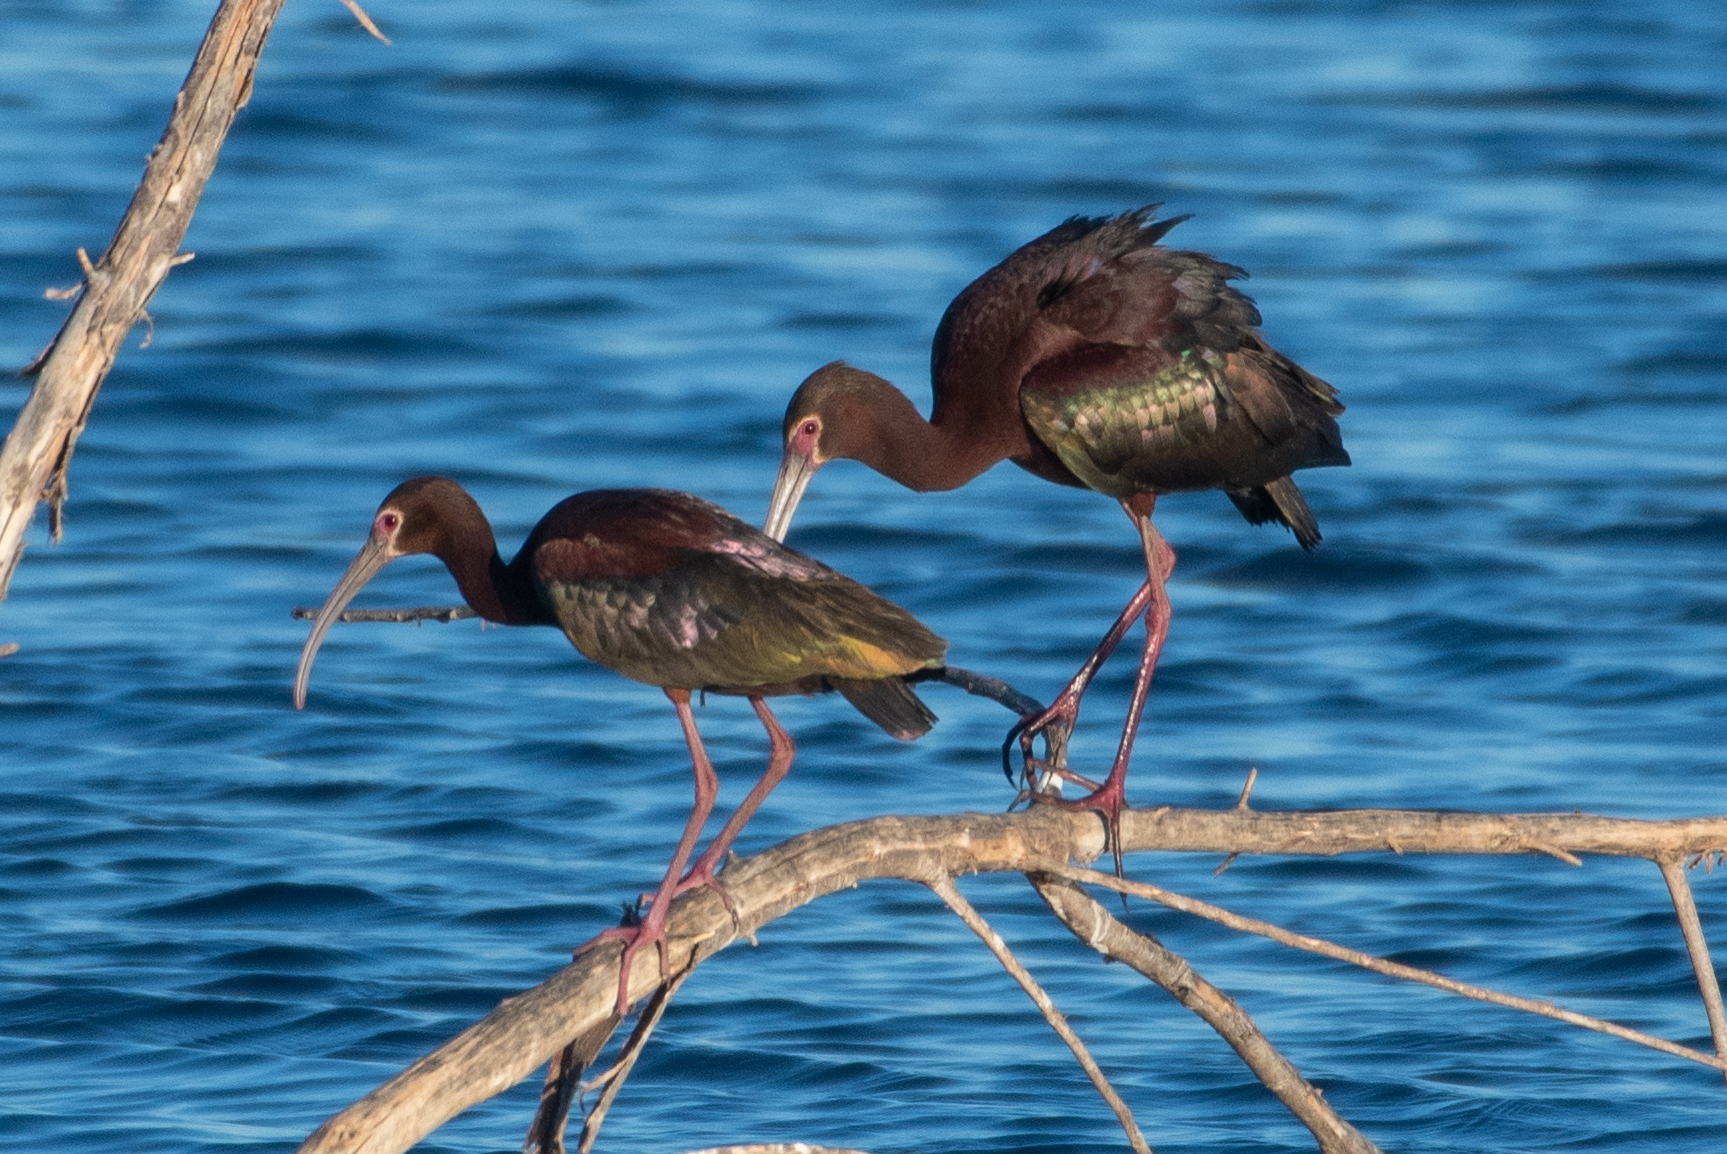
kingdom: Animalia
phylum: Chordata
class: Aves
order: Pelecaniformes
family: Threskiornithidae
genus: Plegadis
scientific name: Plegadis chihi
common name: White-faced ibis
